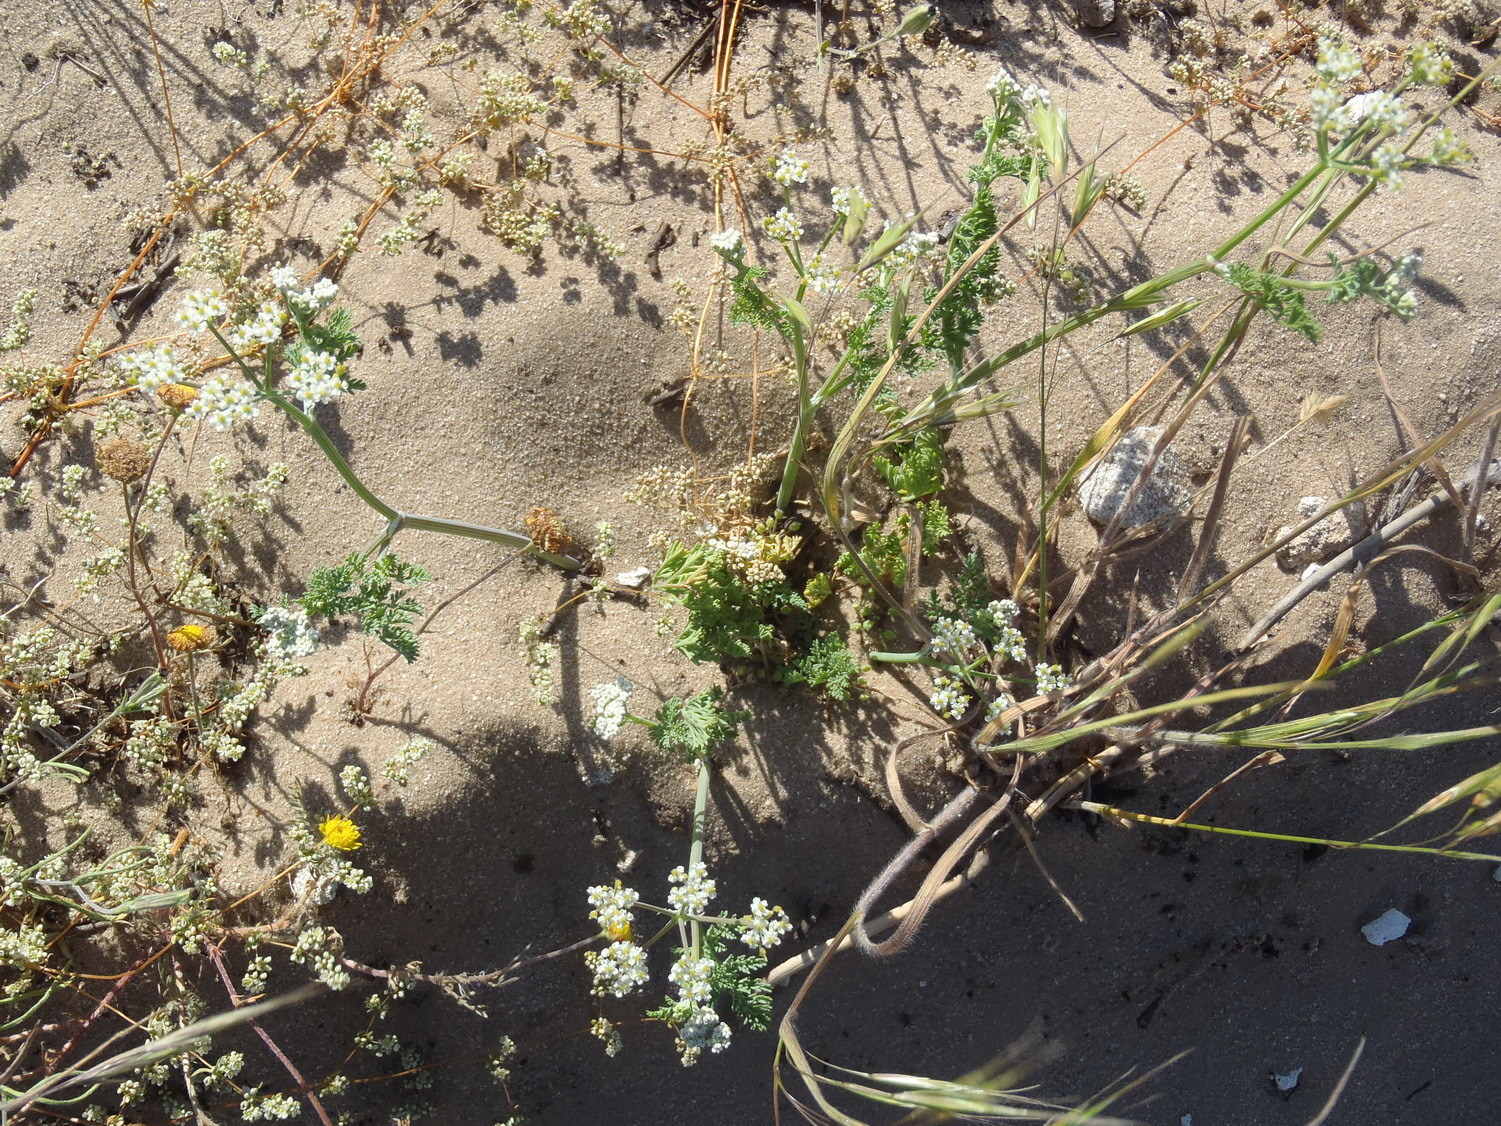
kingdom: Plantae
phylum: Tracheophyta
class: Magnoliopsida
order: Apiales
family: Apiaceae
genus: Capnophyllum
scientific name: Capnophyllum africanum
